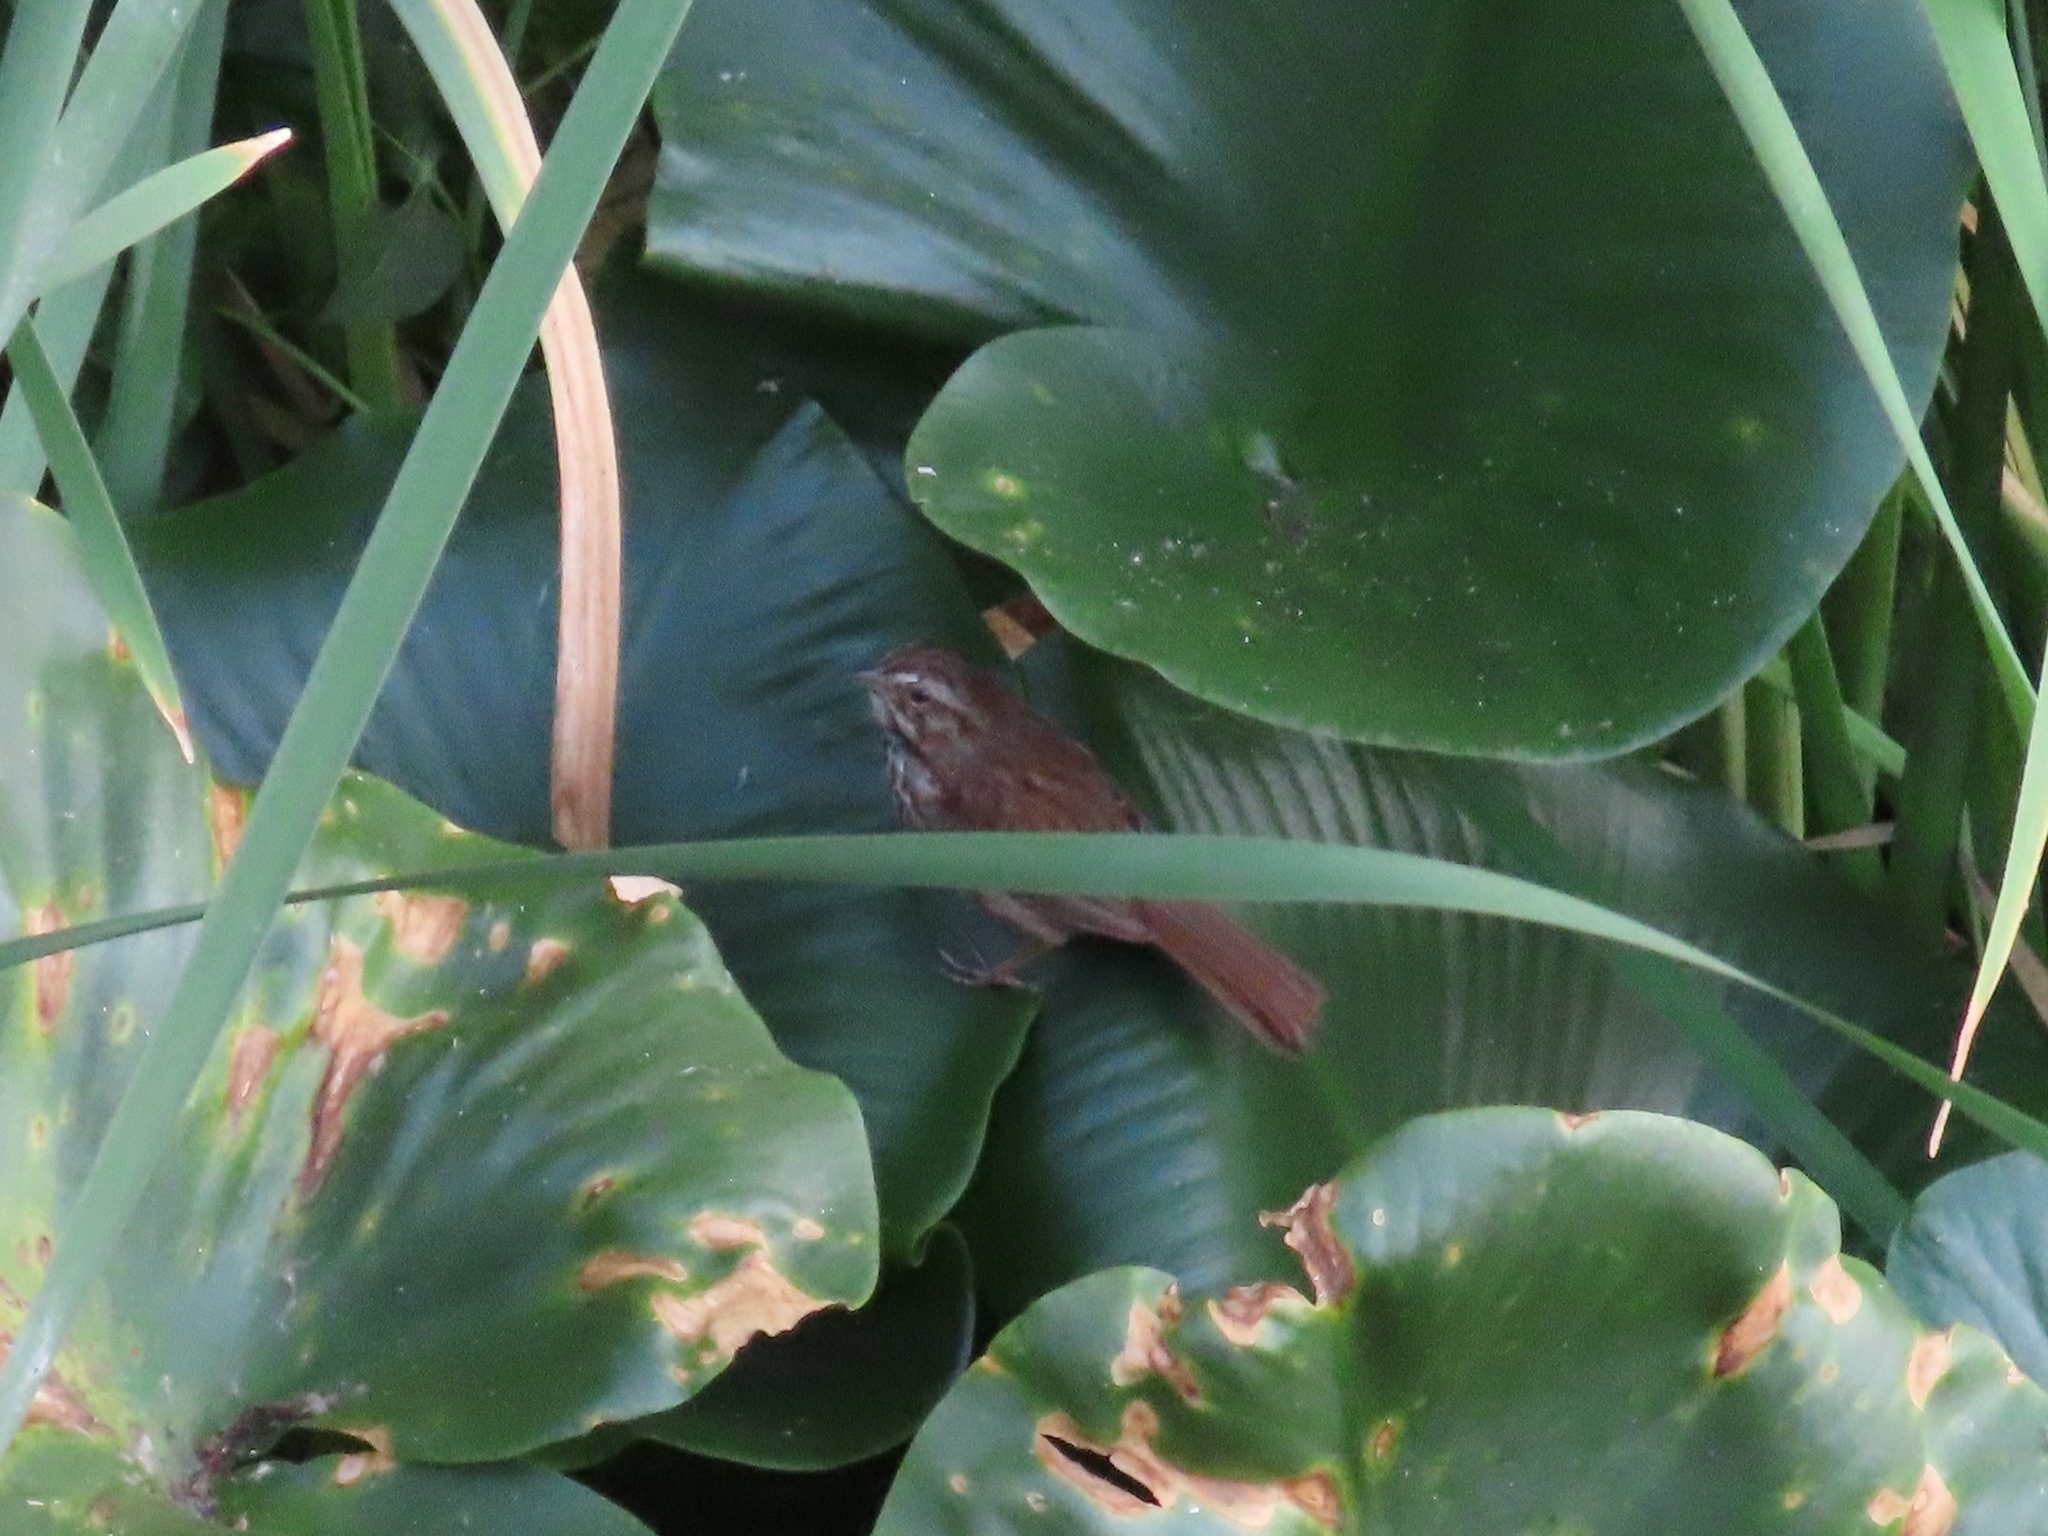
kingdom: Animalia
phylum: Chordata
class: Aves
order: Passeriformes
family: Passerellidae
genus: Melospiza
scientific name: Melospiza melodia
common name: Song sparrow
